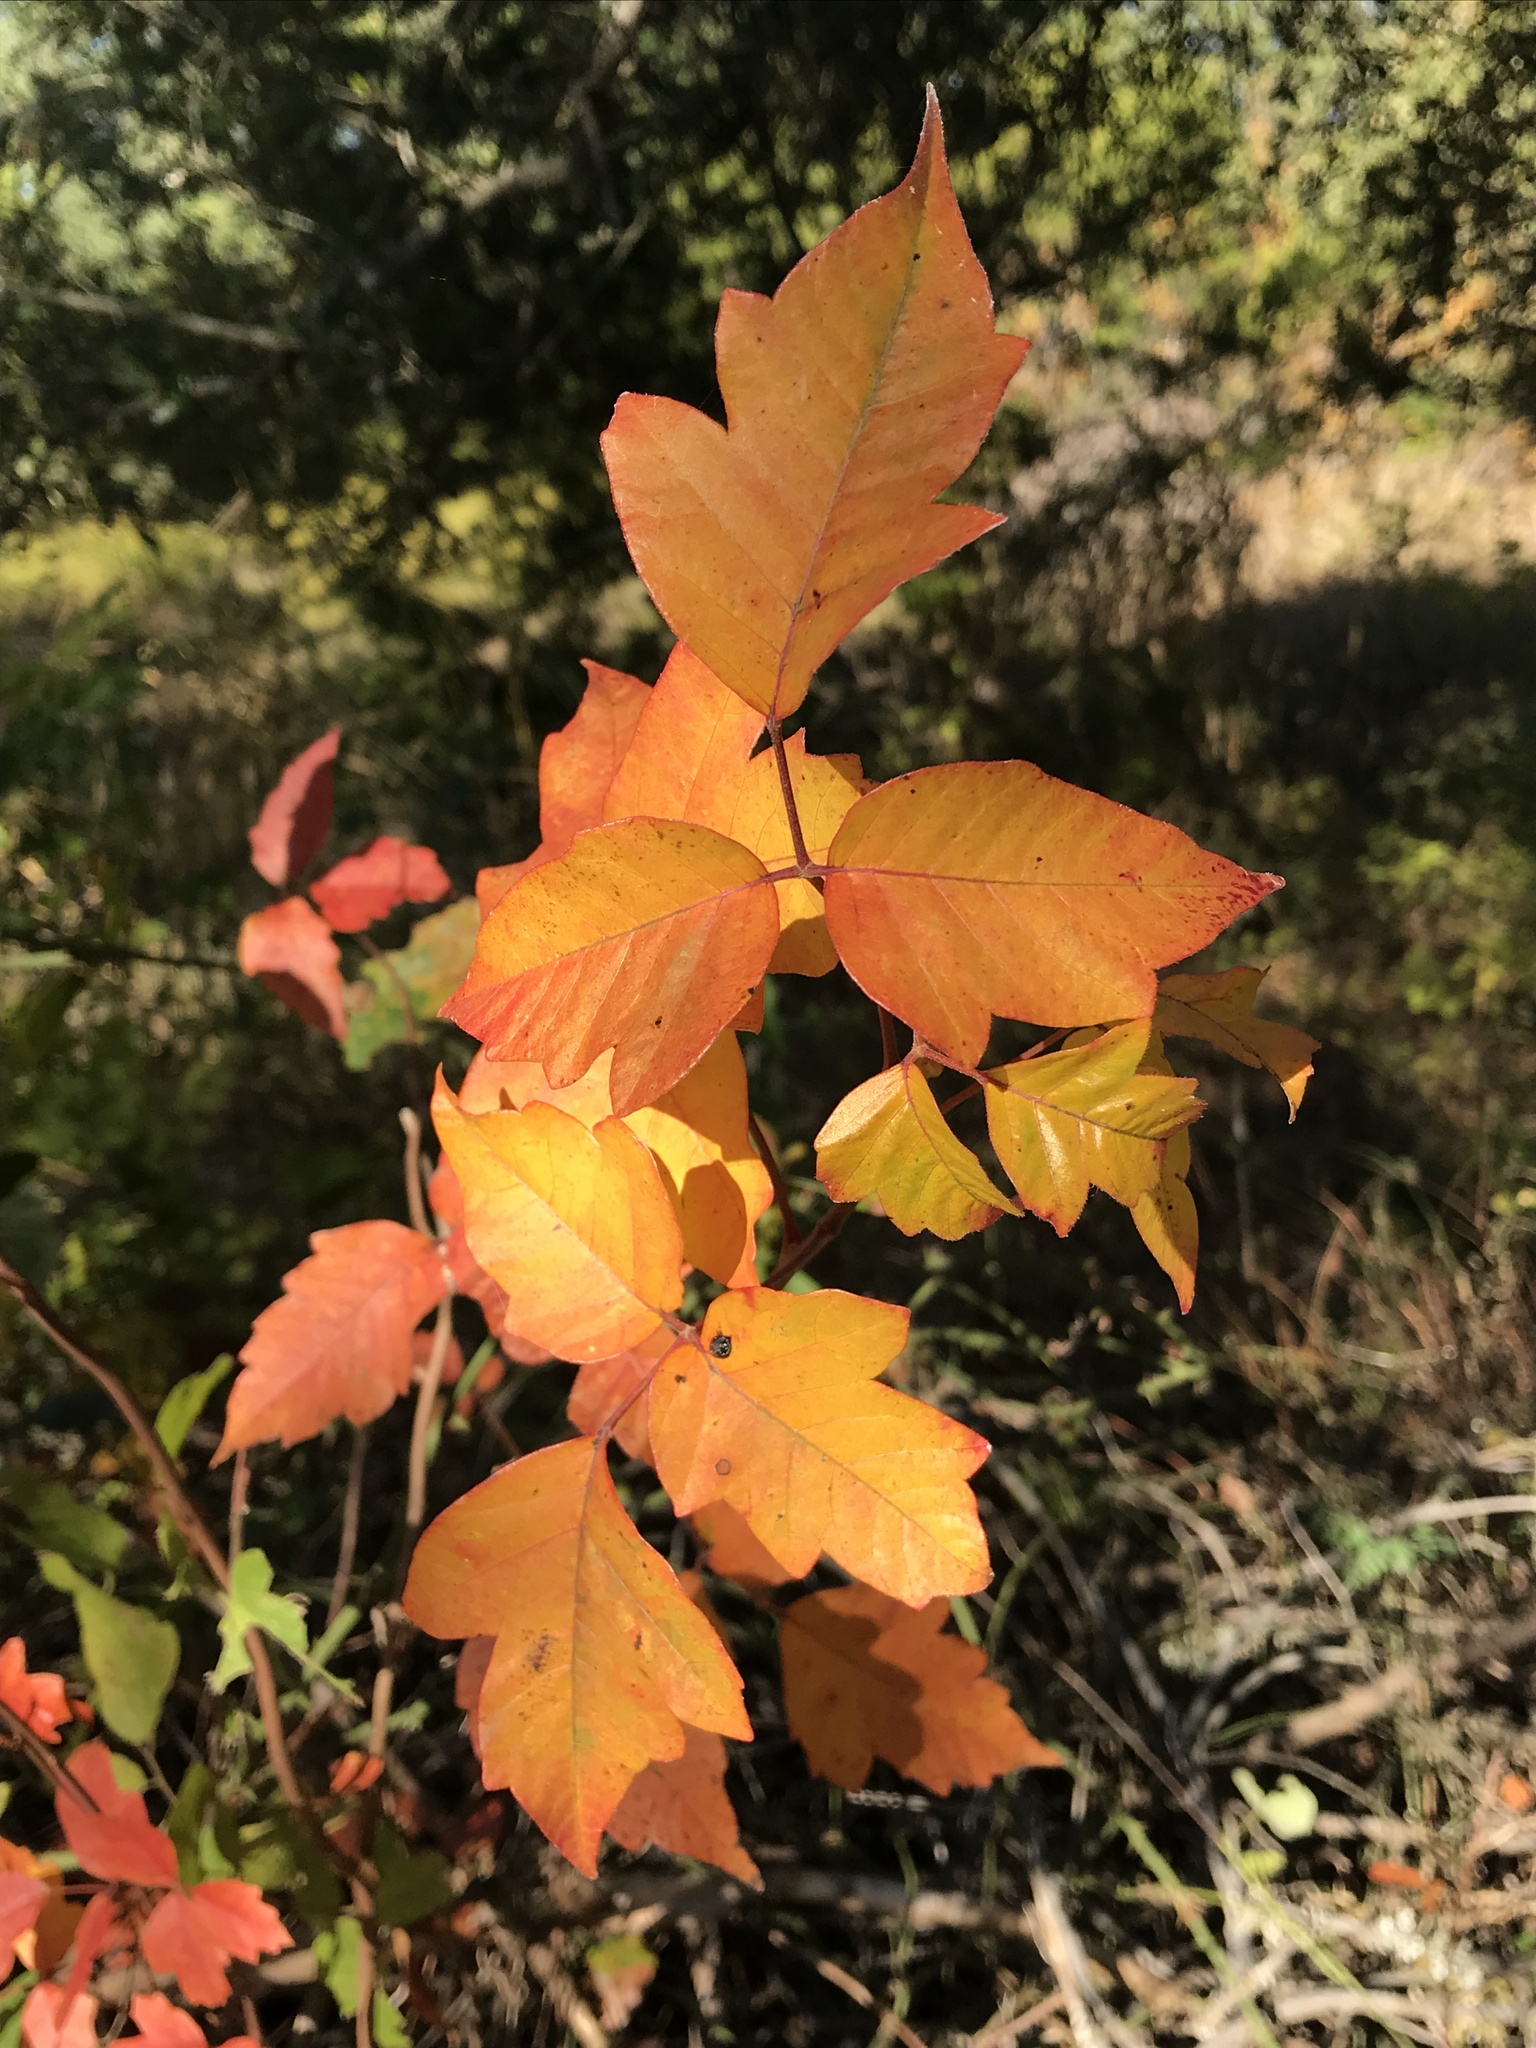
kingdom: Plantae
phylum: Tracheophyta
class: Magnoliopsida
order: Sapindales
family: Anacardiaceae
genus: Toxicodendron
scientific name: Toxicodendron radicans
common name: Poison ivy
